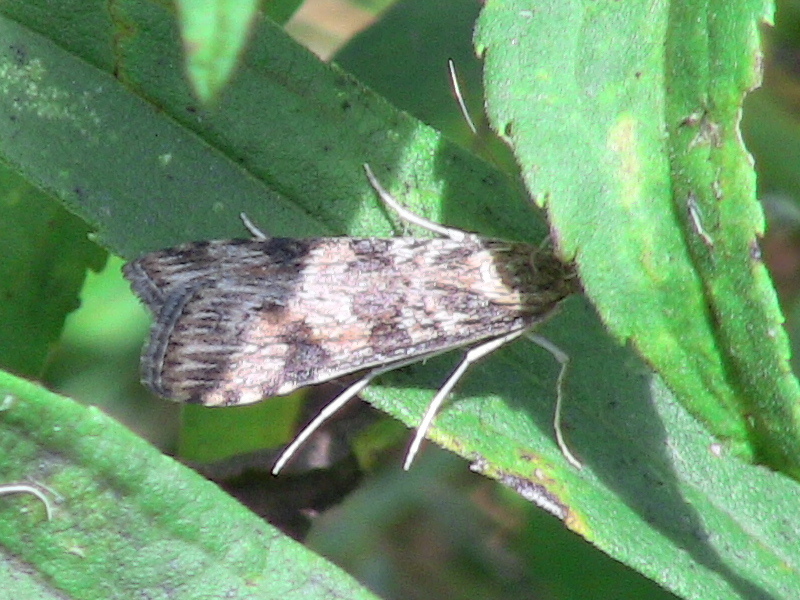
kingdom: Animalia
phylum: Arthropoda
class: Insecta
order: Lepidoptera
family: Crambidae
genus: Nomophila
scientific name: Nomophila nearctica
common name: American rush veneer
